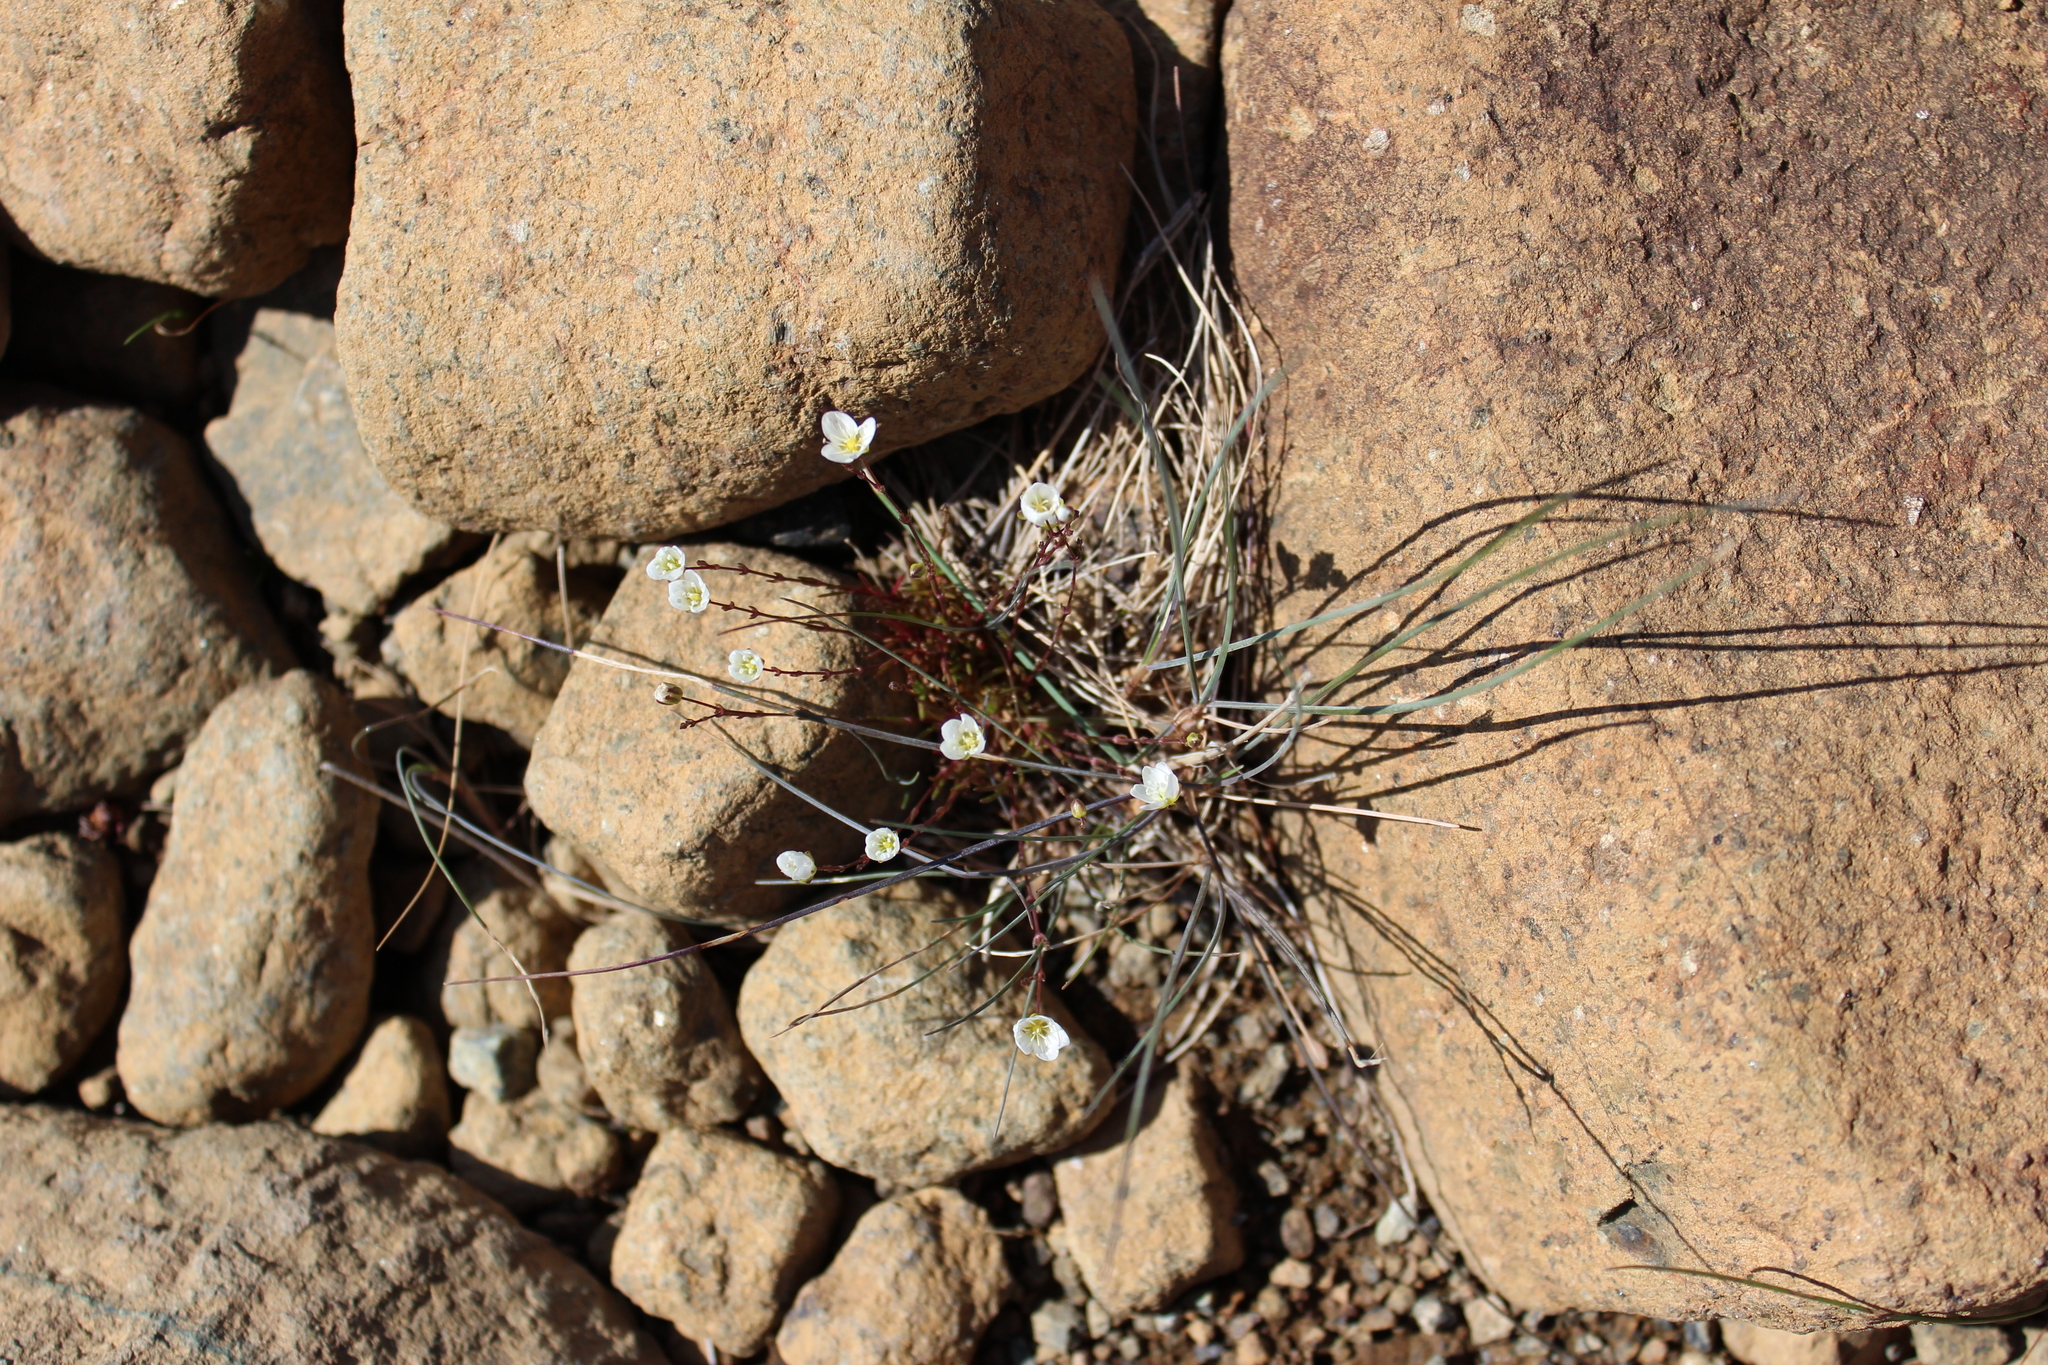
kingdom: Plantae
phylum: Tracheophyta
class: Magnoliopsida
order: Caryophyllales
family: Caryophyllaceae
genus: Sagina
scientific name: Sagina nodosa
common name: Knotted pearlwort
